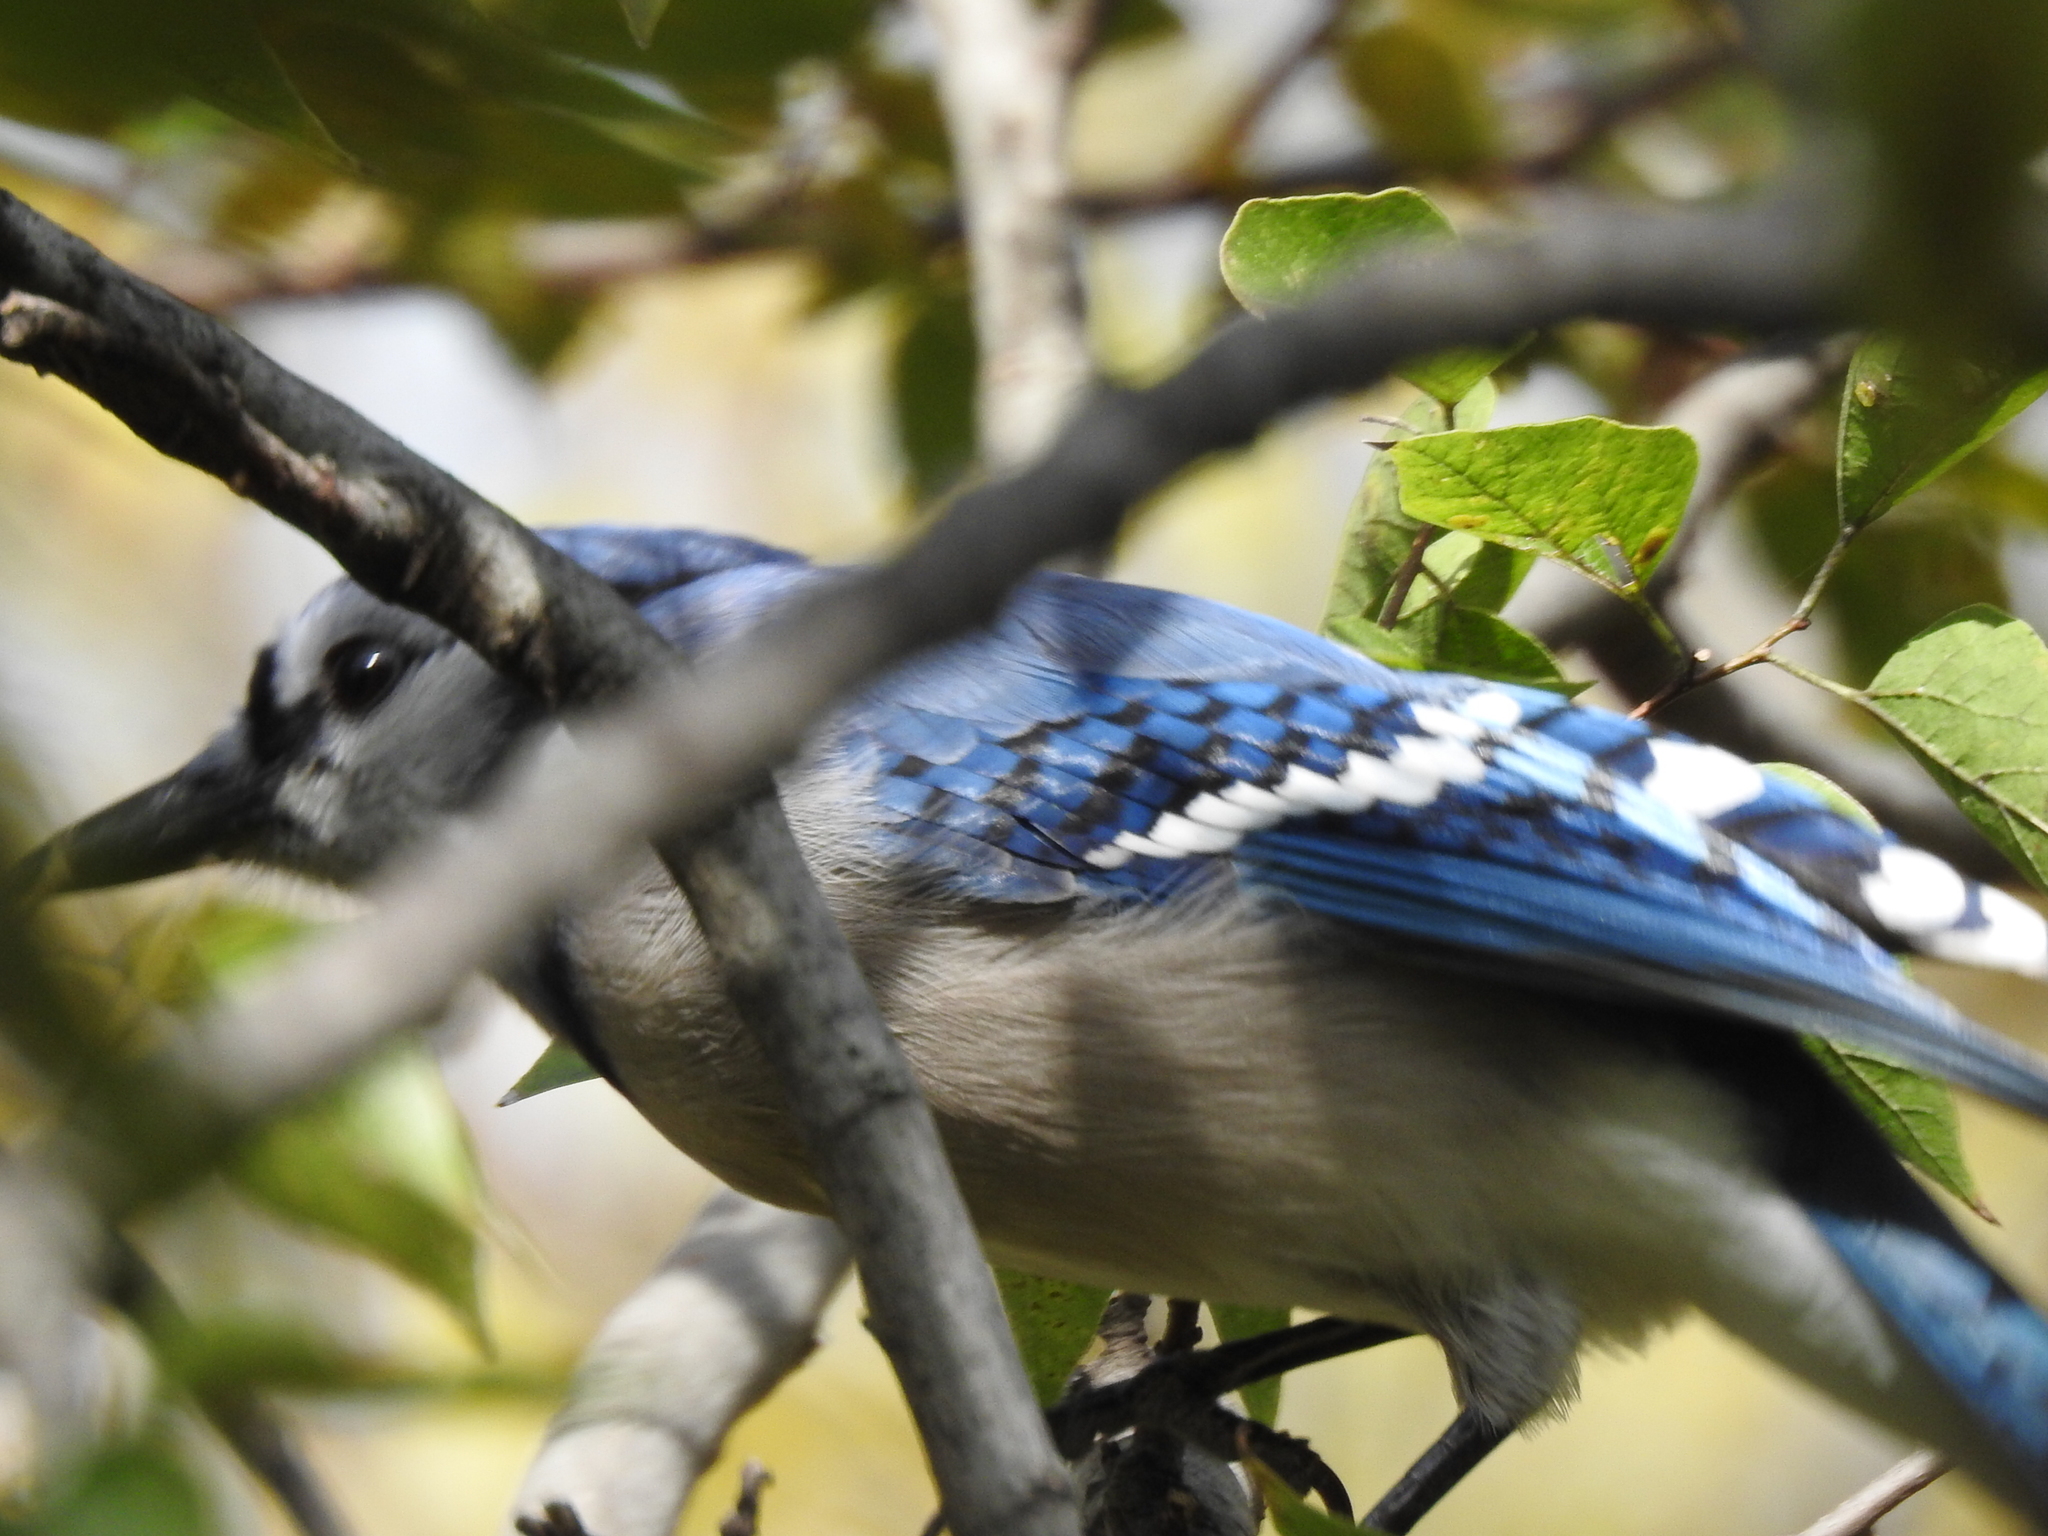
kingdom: Animalia
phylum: Chordata
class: Aves
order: Passeriformes
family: Corvidae
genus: Cyanocitta
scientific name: Cyanocitta cristata
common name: Blue jay
